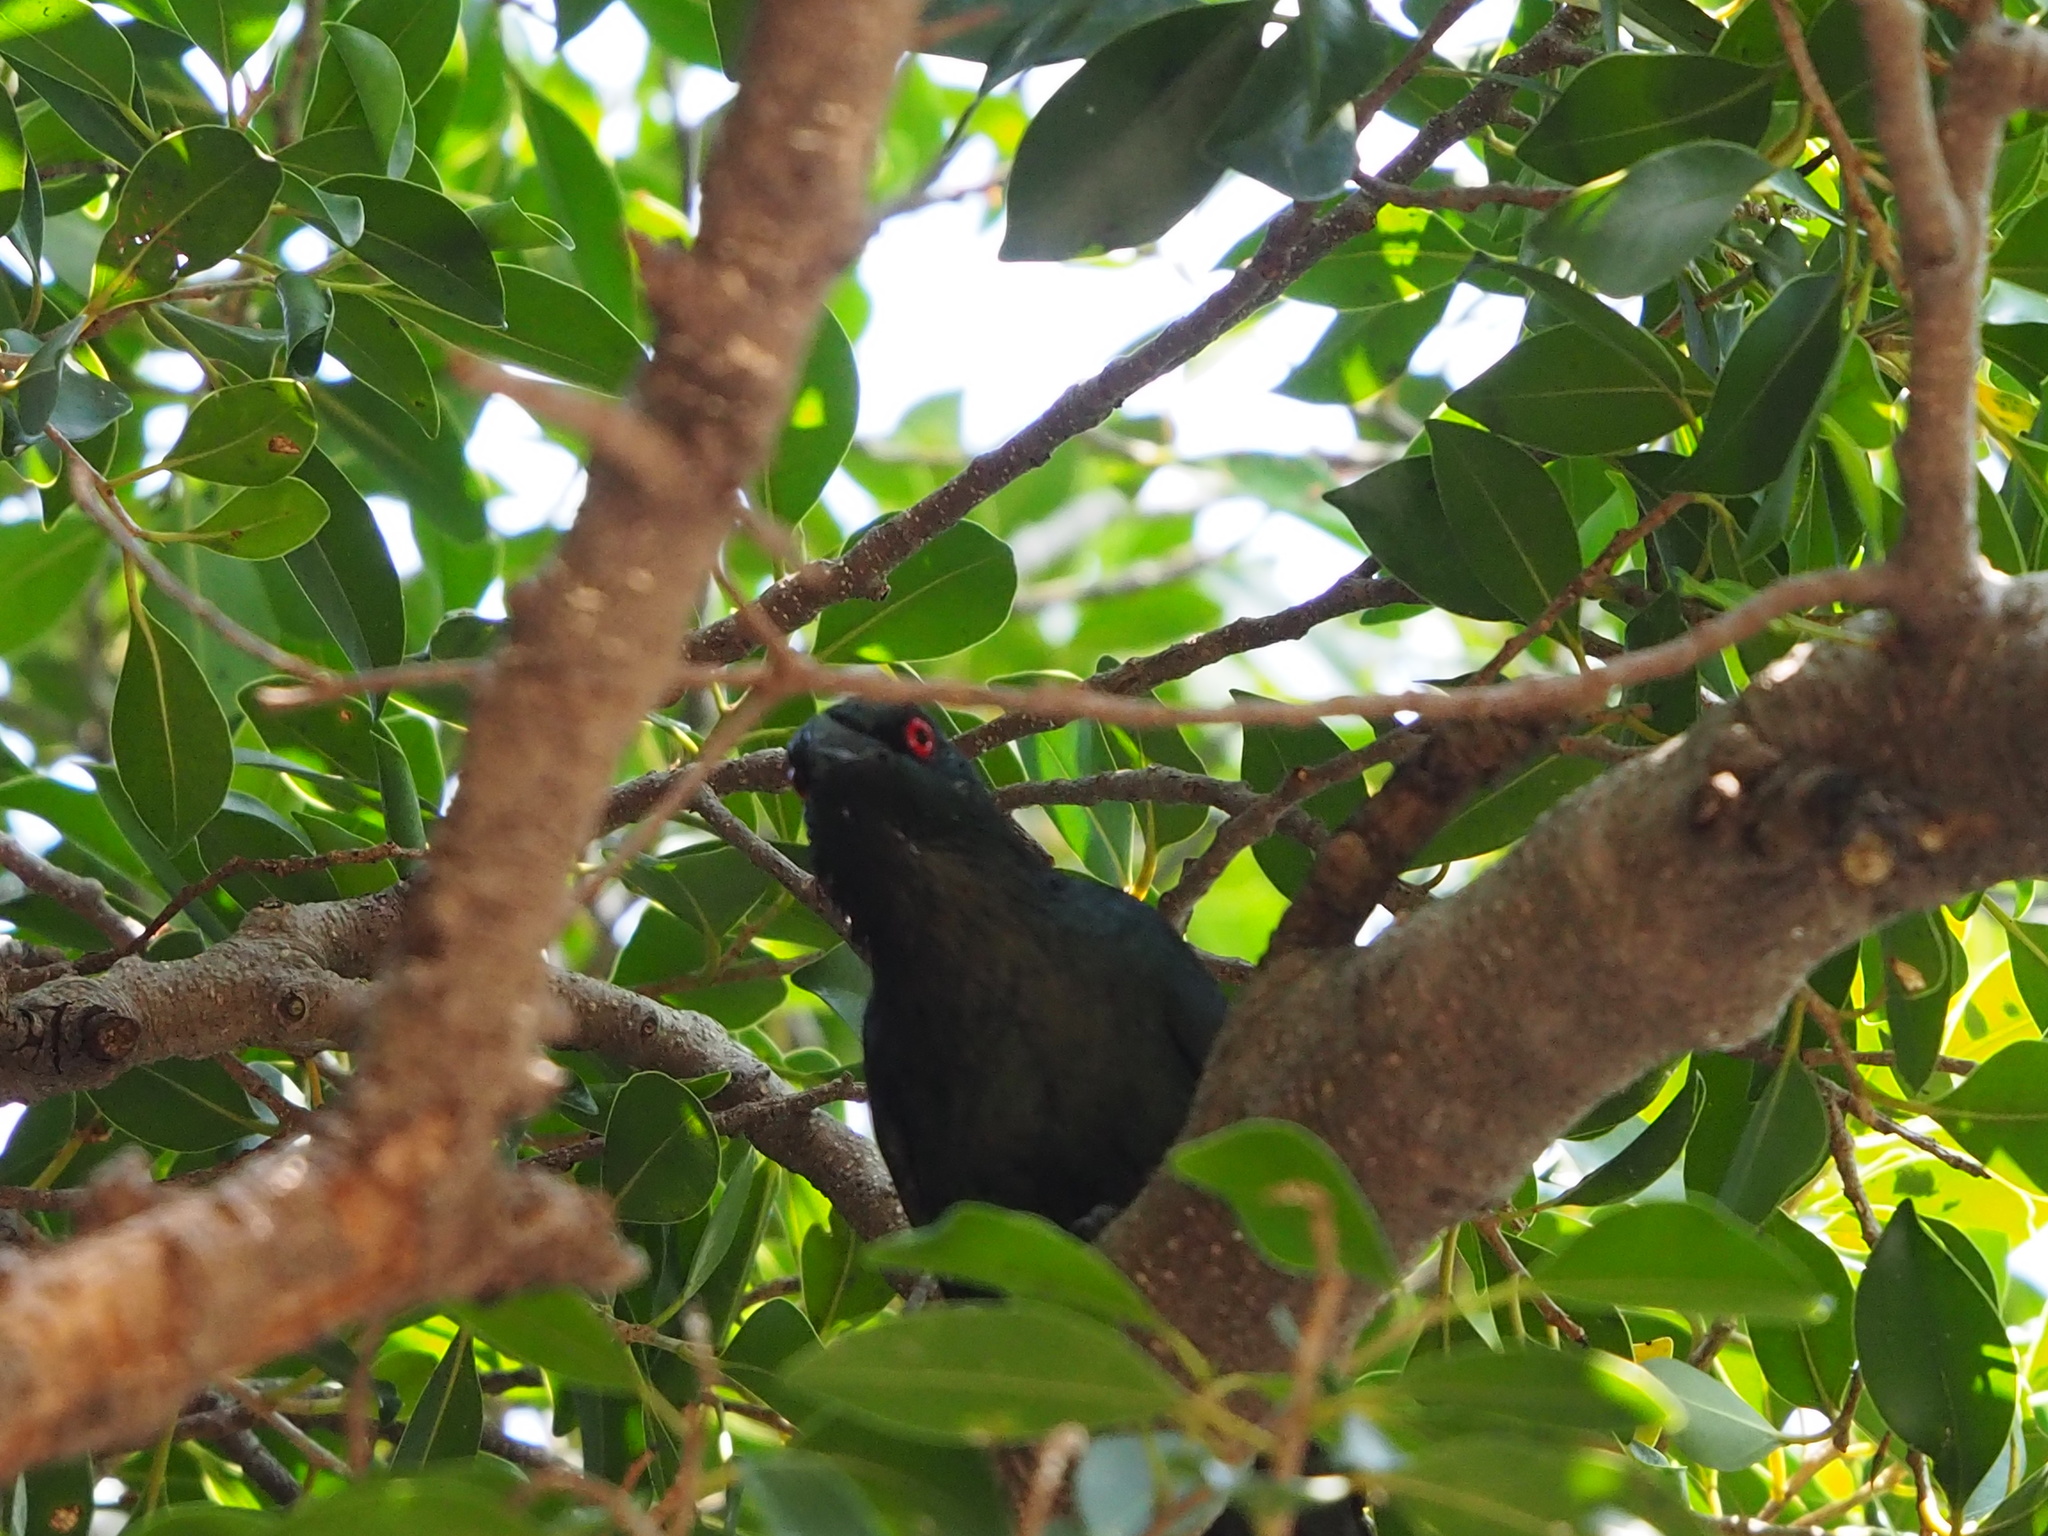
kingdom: Animalia
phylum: Chordata
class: Aves
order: Passeriformes
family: Sturnidae
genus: Aplonis
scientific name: Aplonis panayensis
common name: Asian glossy starling
